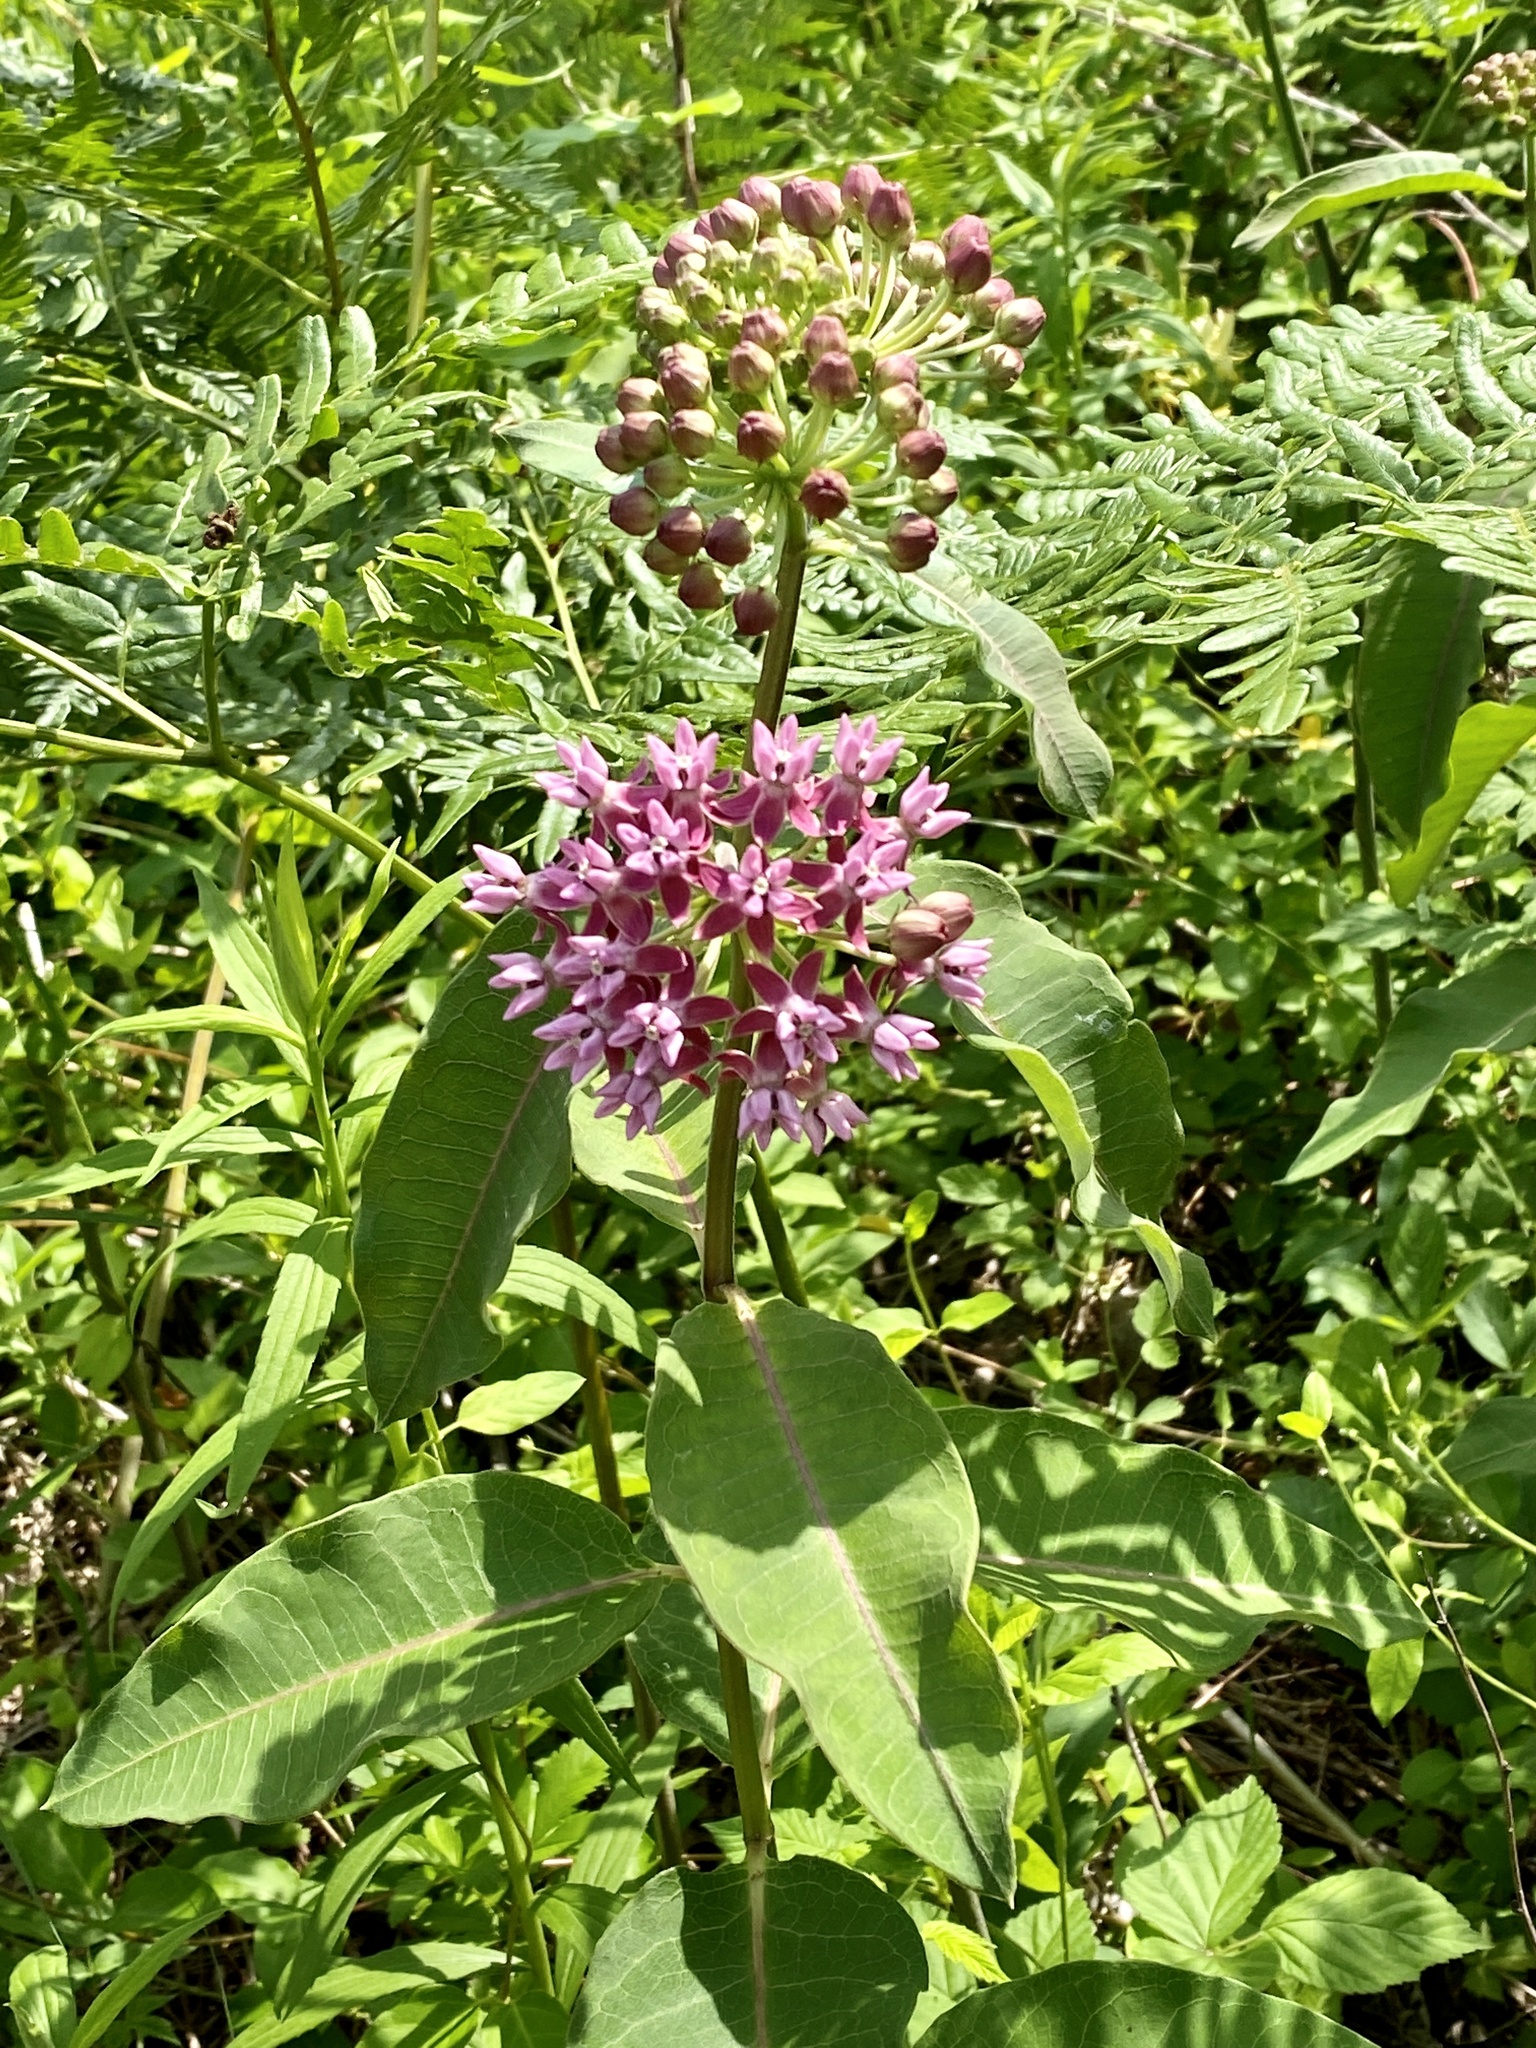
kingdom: Plantae
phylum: Tracheophyta
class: Magnoliopsida
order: Gentianales
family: Apocynaceae
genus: Asclepias
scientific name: Asclepias purpurascens
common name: Purple milkweed
